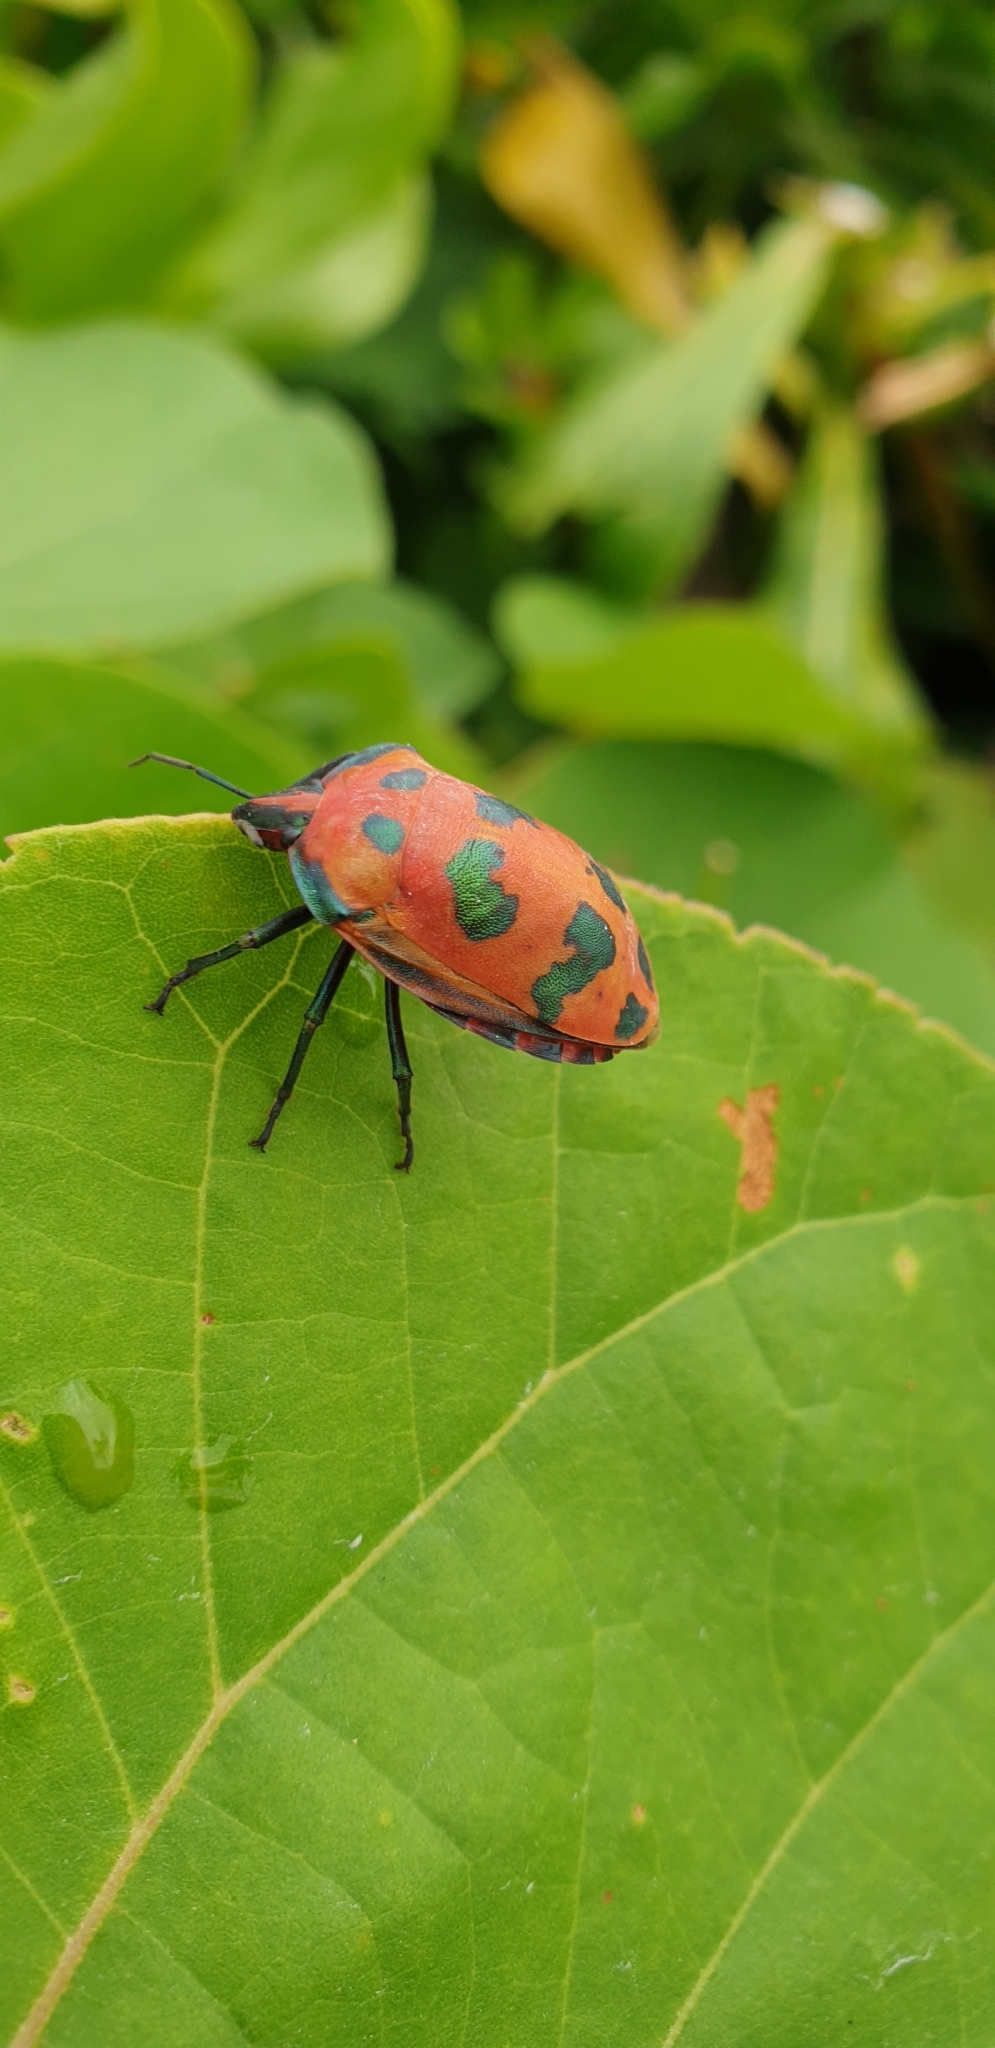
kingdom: Animalia
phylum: Arthropoda
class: Insecta
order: Hemiptera
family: Scutelleridae
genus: Tectocoris
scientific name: Tectocoris diophthalmus
